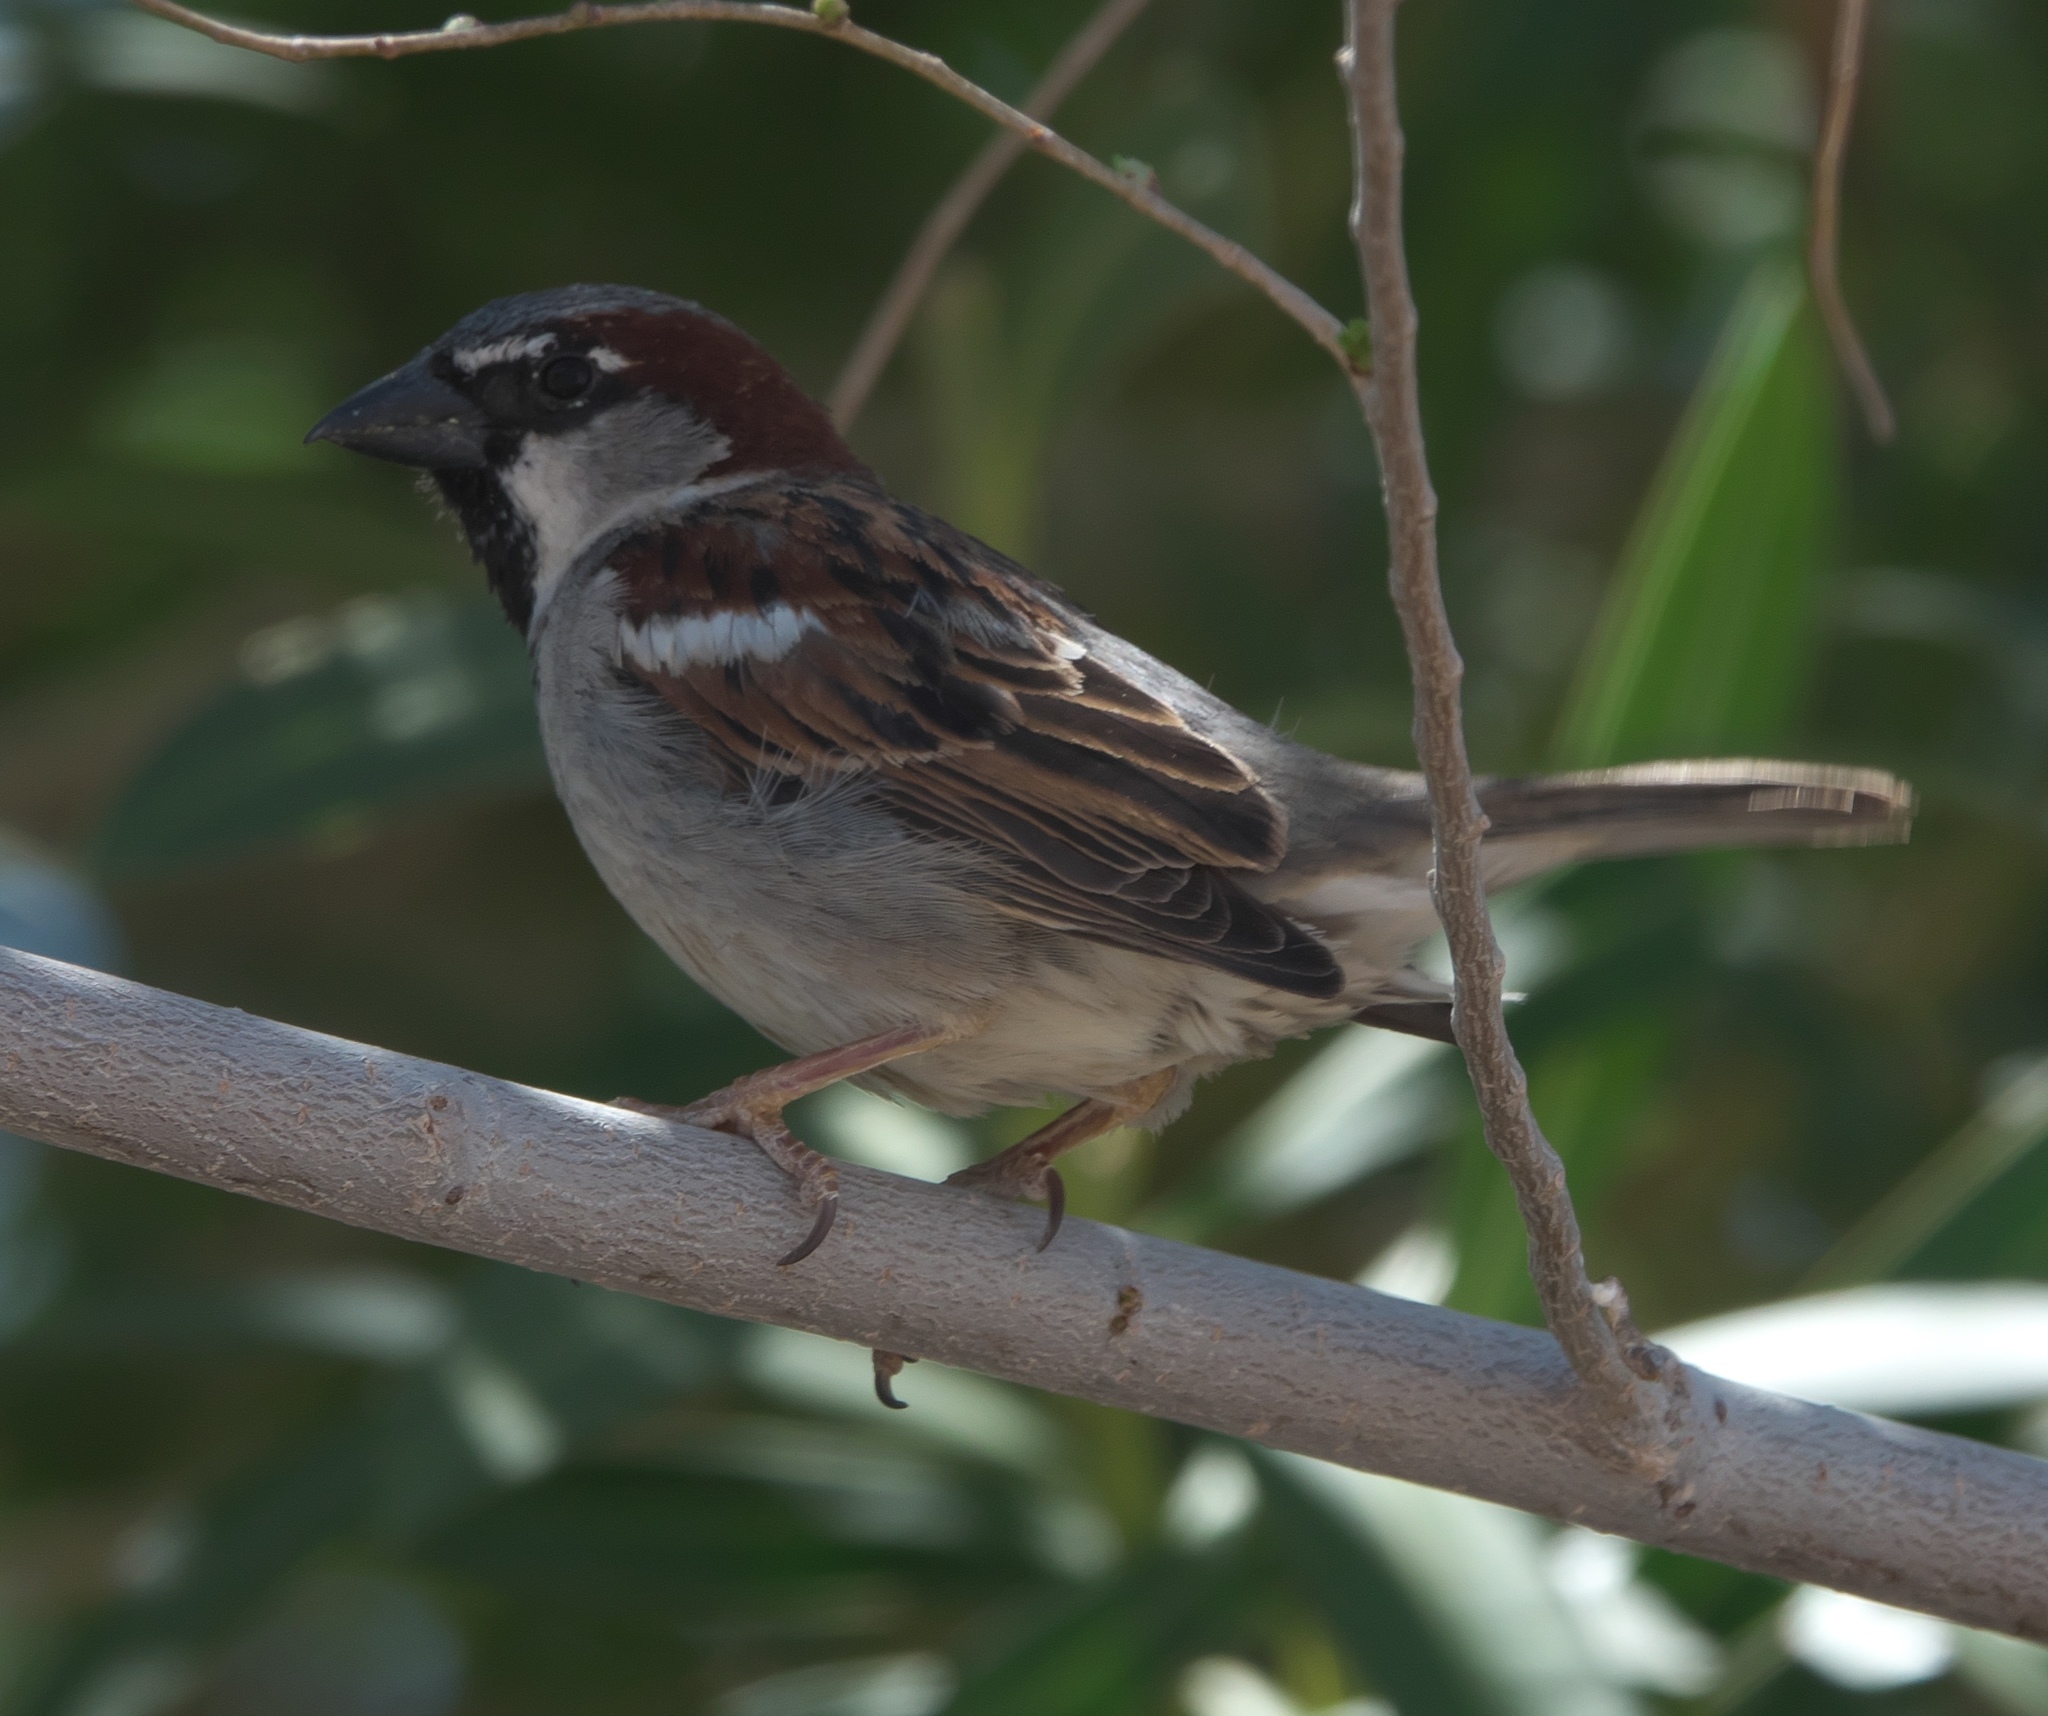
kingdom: Animalia
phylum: Chordata
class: Aves
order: Passeriformes
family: Passeridae
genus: Passer
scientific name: Passer domesticus
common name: House sparrow
